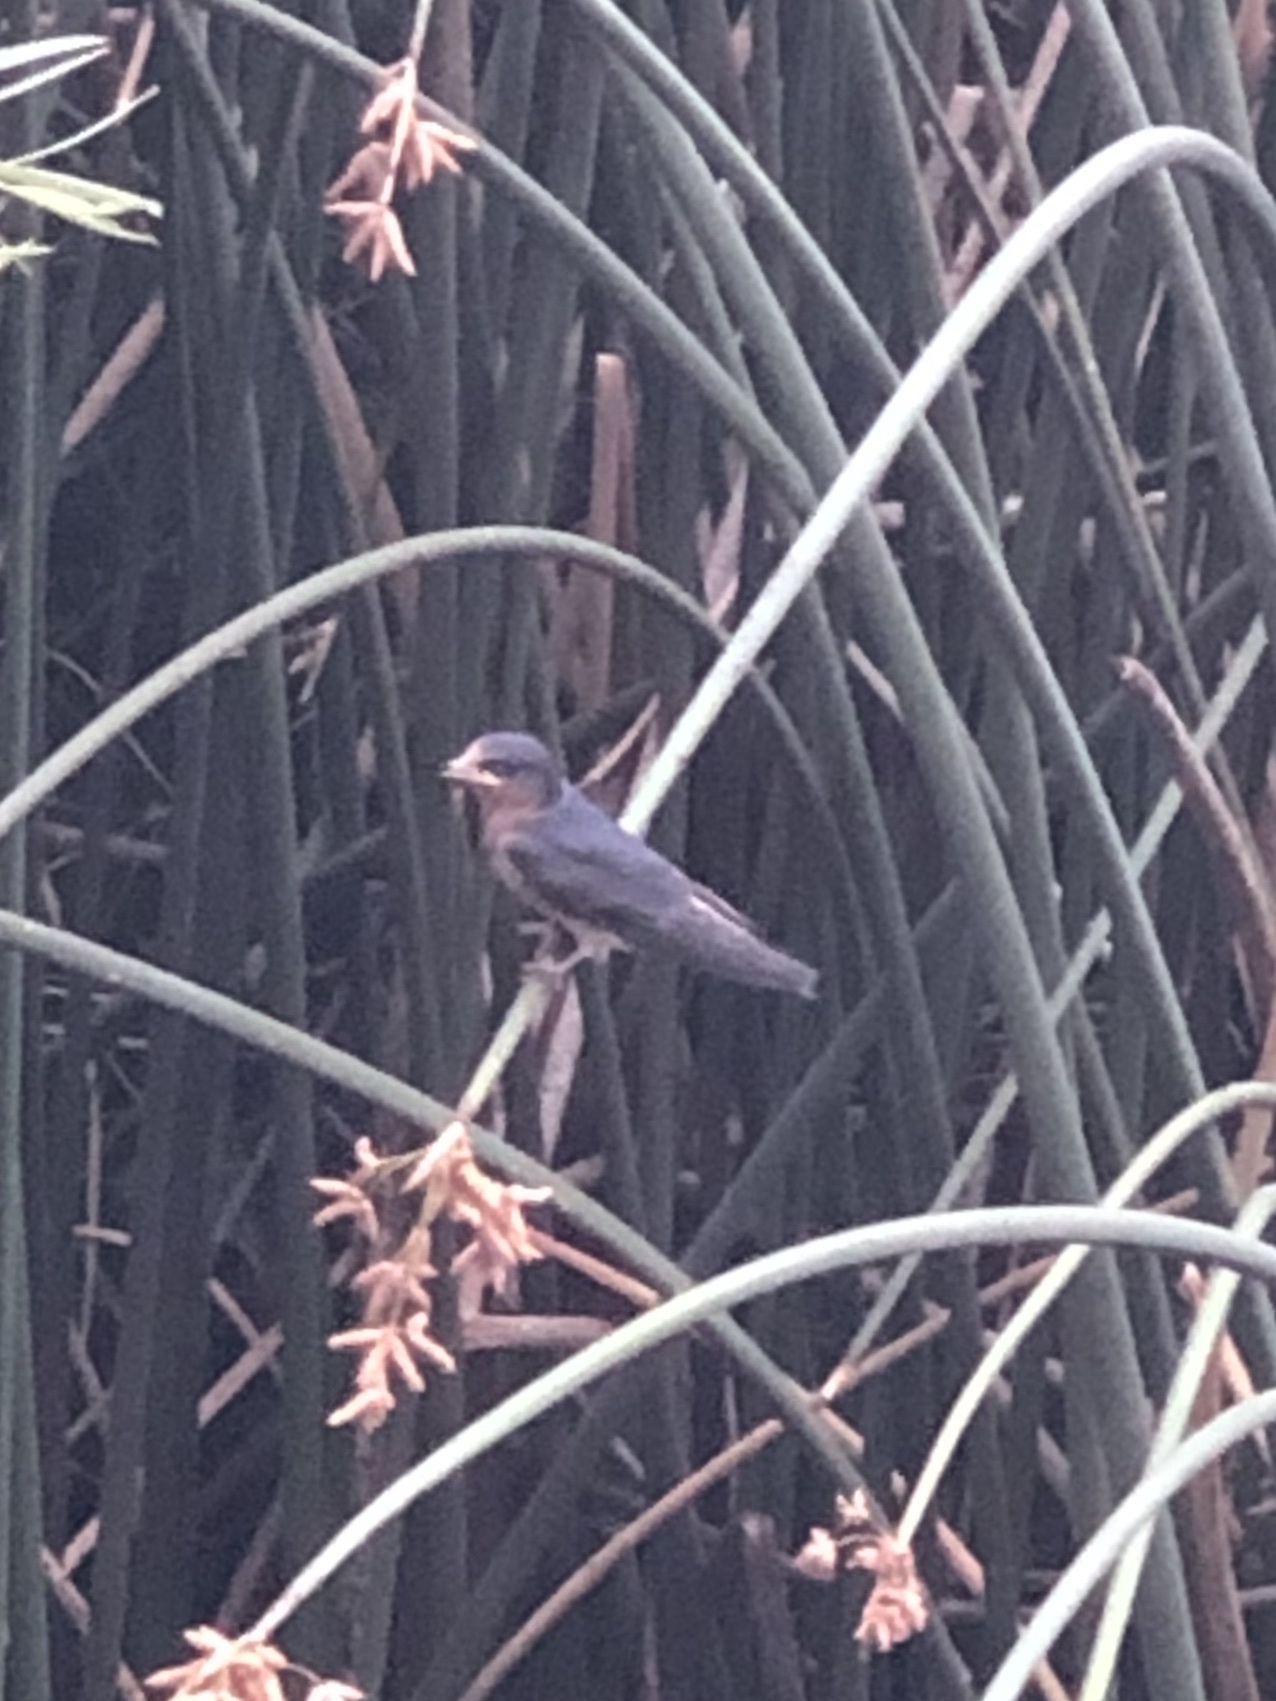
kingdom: Animalia
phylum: Chordata
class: Aves
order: Passeriformes
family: Hirundinidae
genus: Hirundo
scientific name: Hirundo rustica
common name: Barn swallow
